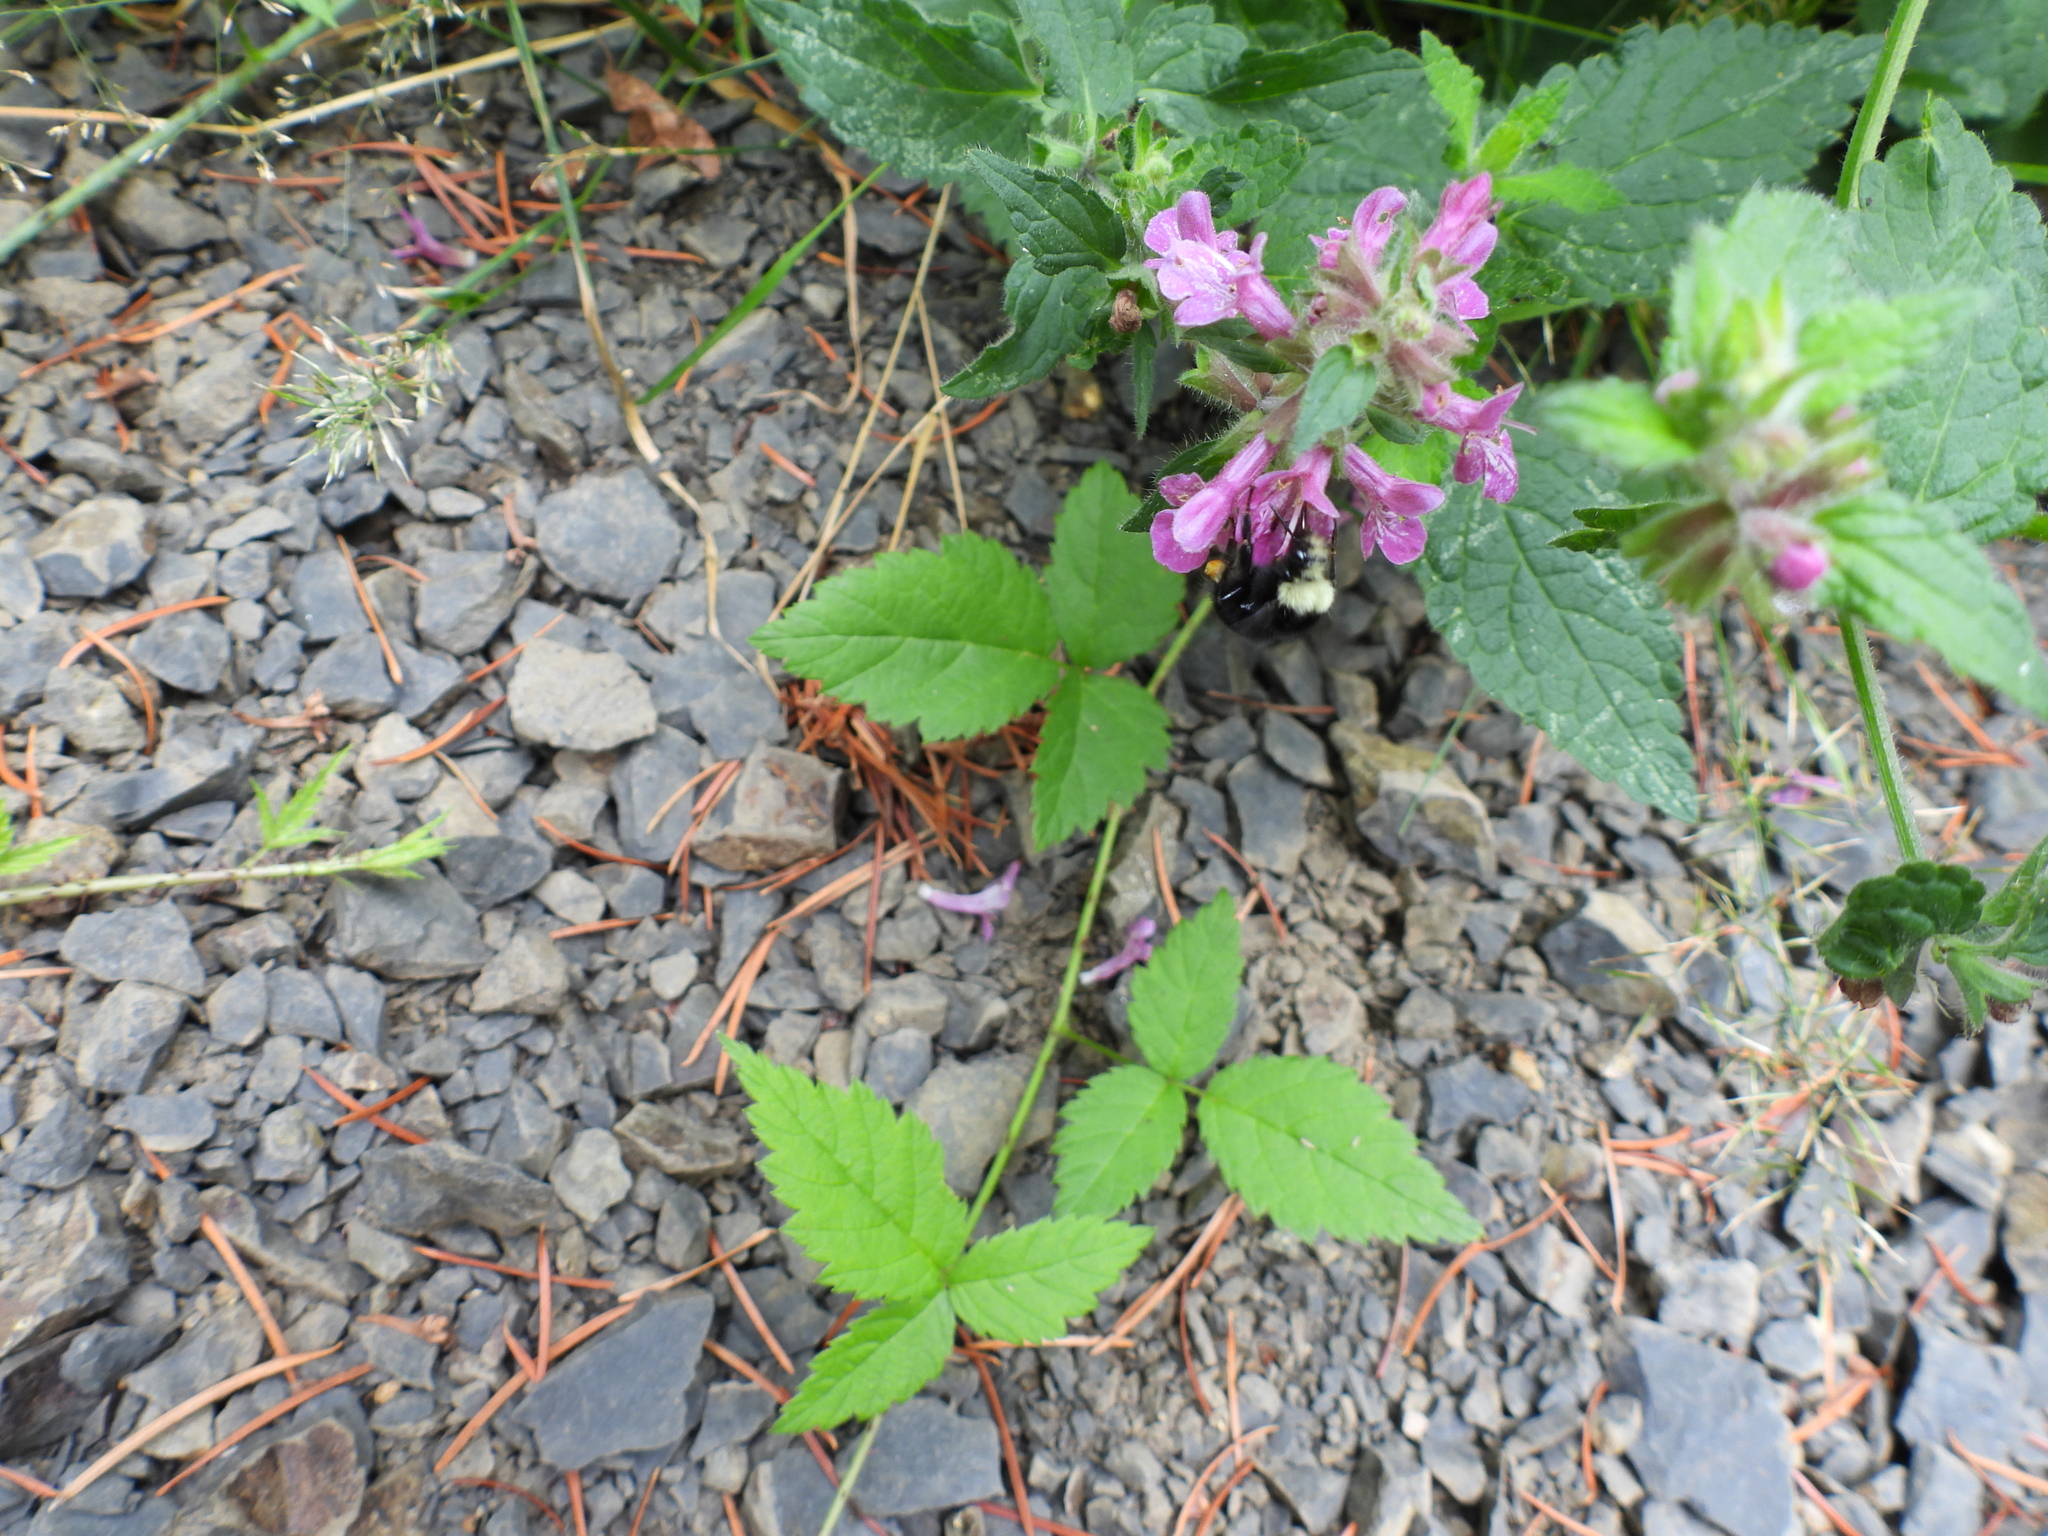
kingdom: Animalia
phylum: Arthropoda
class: Insecta
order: Hymenoptera
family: Apidae
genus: Bombus
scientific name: Bombus vosnesenskii
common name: Vosnesensky bumble bee
